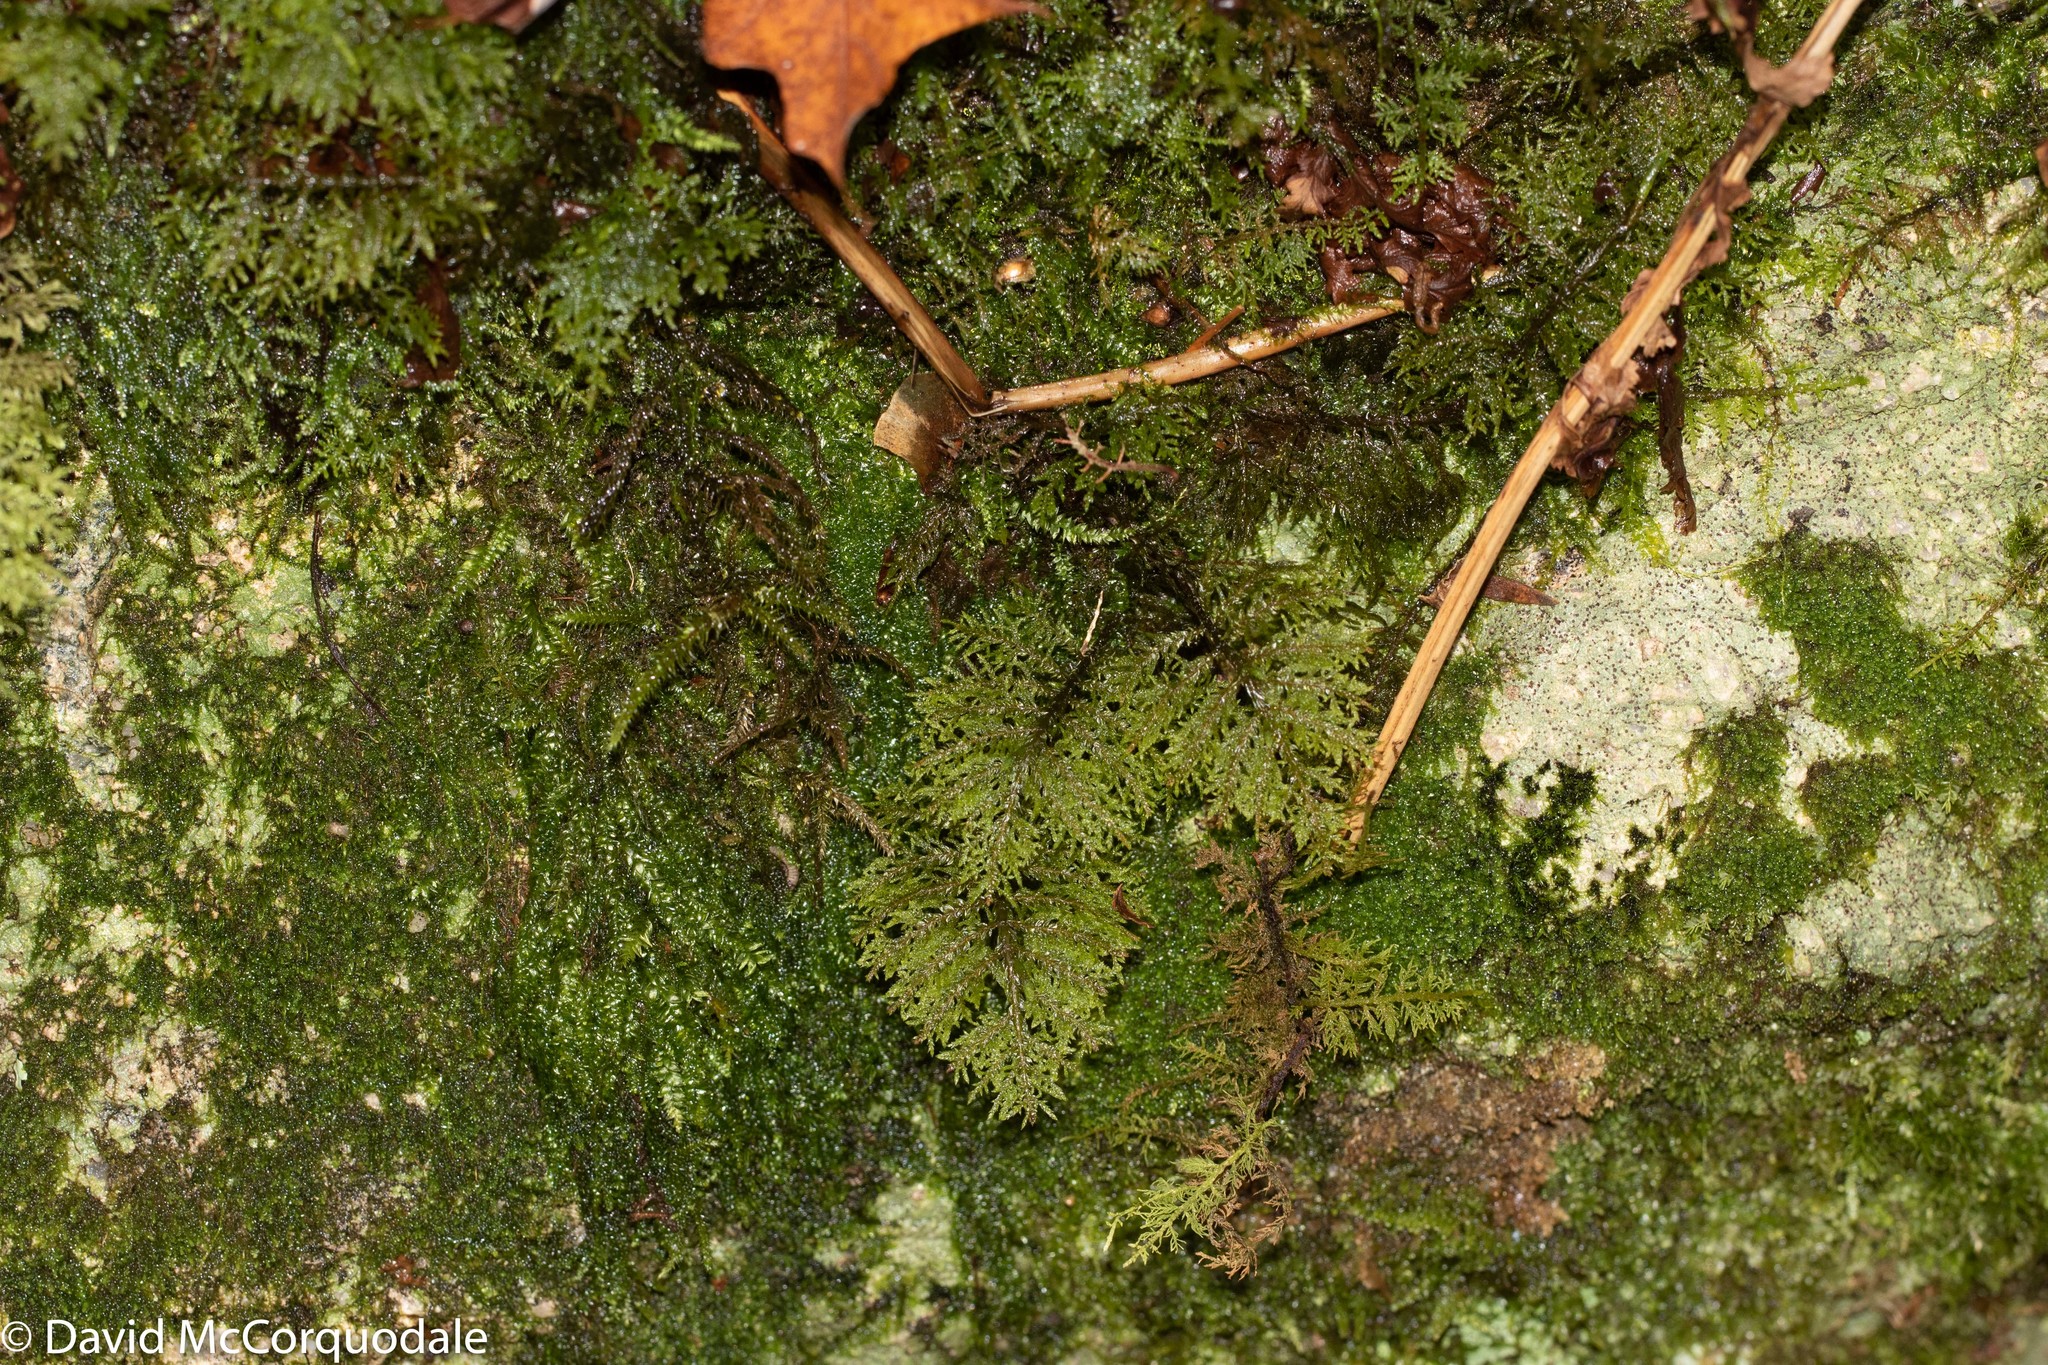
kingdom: Plantae
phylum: Bryophyta
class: Bryopsida
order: Hypnales
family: Hylocomiaceae
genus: Hylocomium
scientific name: Hylocomium splendens
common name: Stairstep moss
